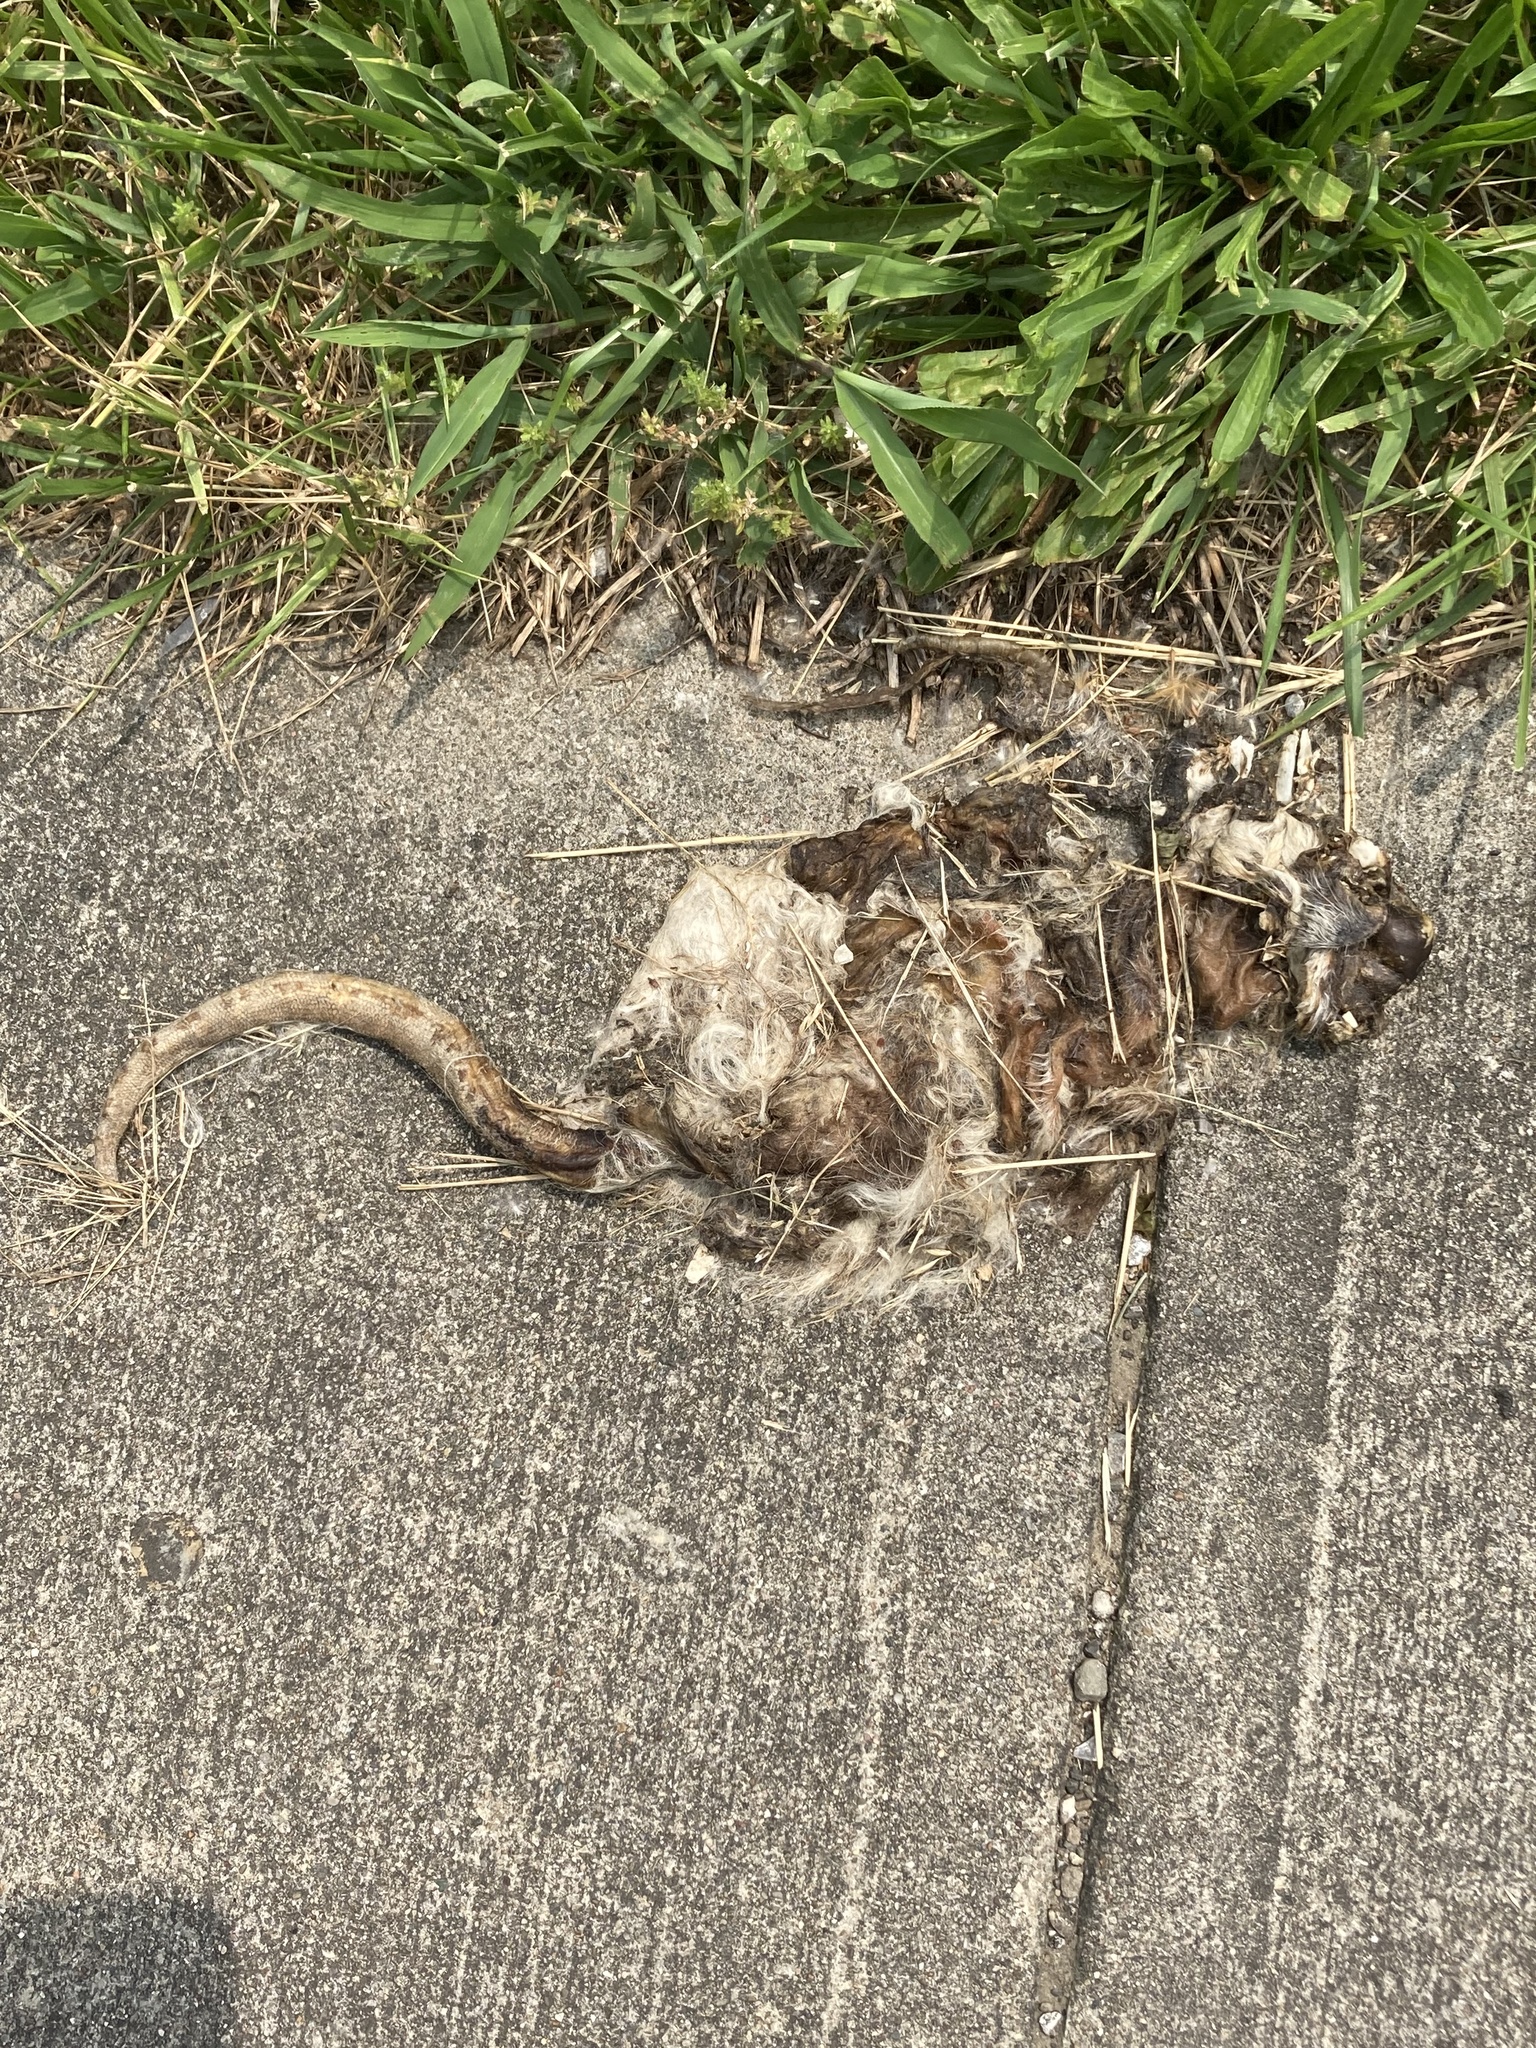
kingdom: Animalia
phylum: Chordata
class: Mammalia
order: Didelphimorphia
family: Didelphidae
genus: Didelphis
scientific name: Didelphis virginiana
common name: Virginia opossum
